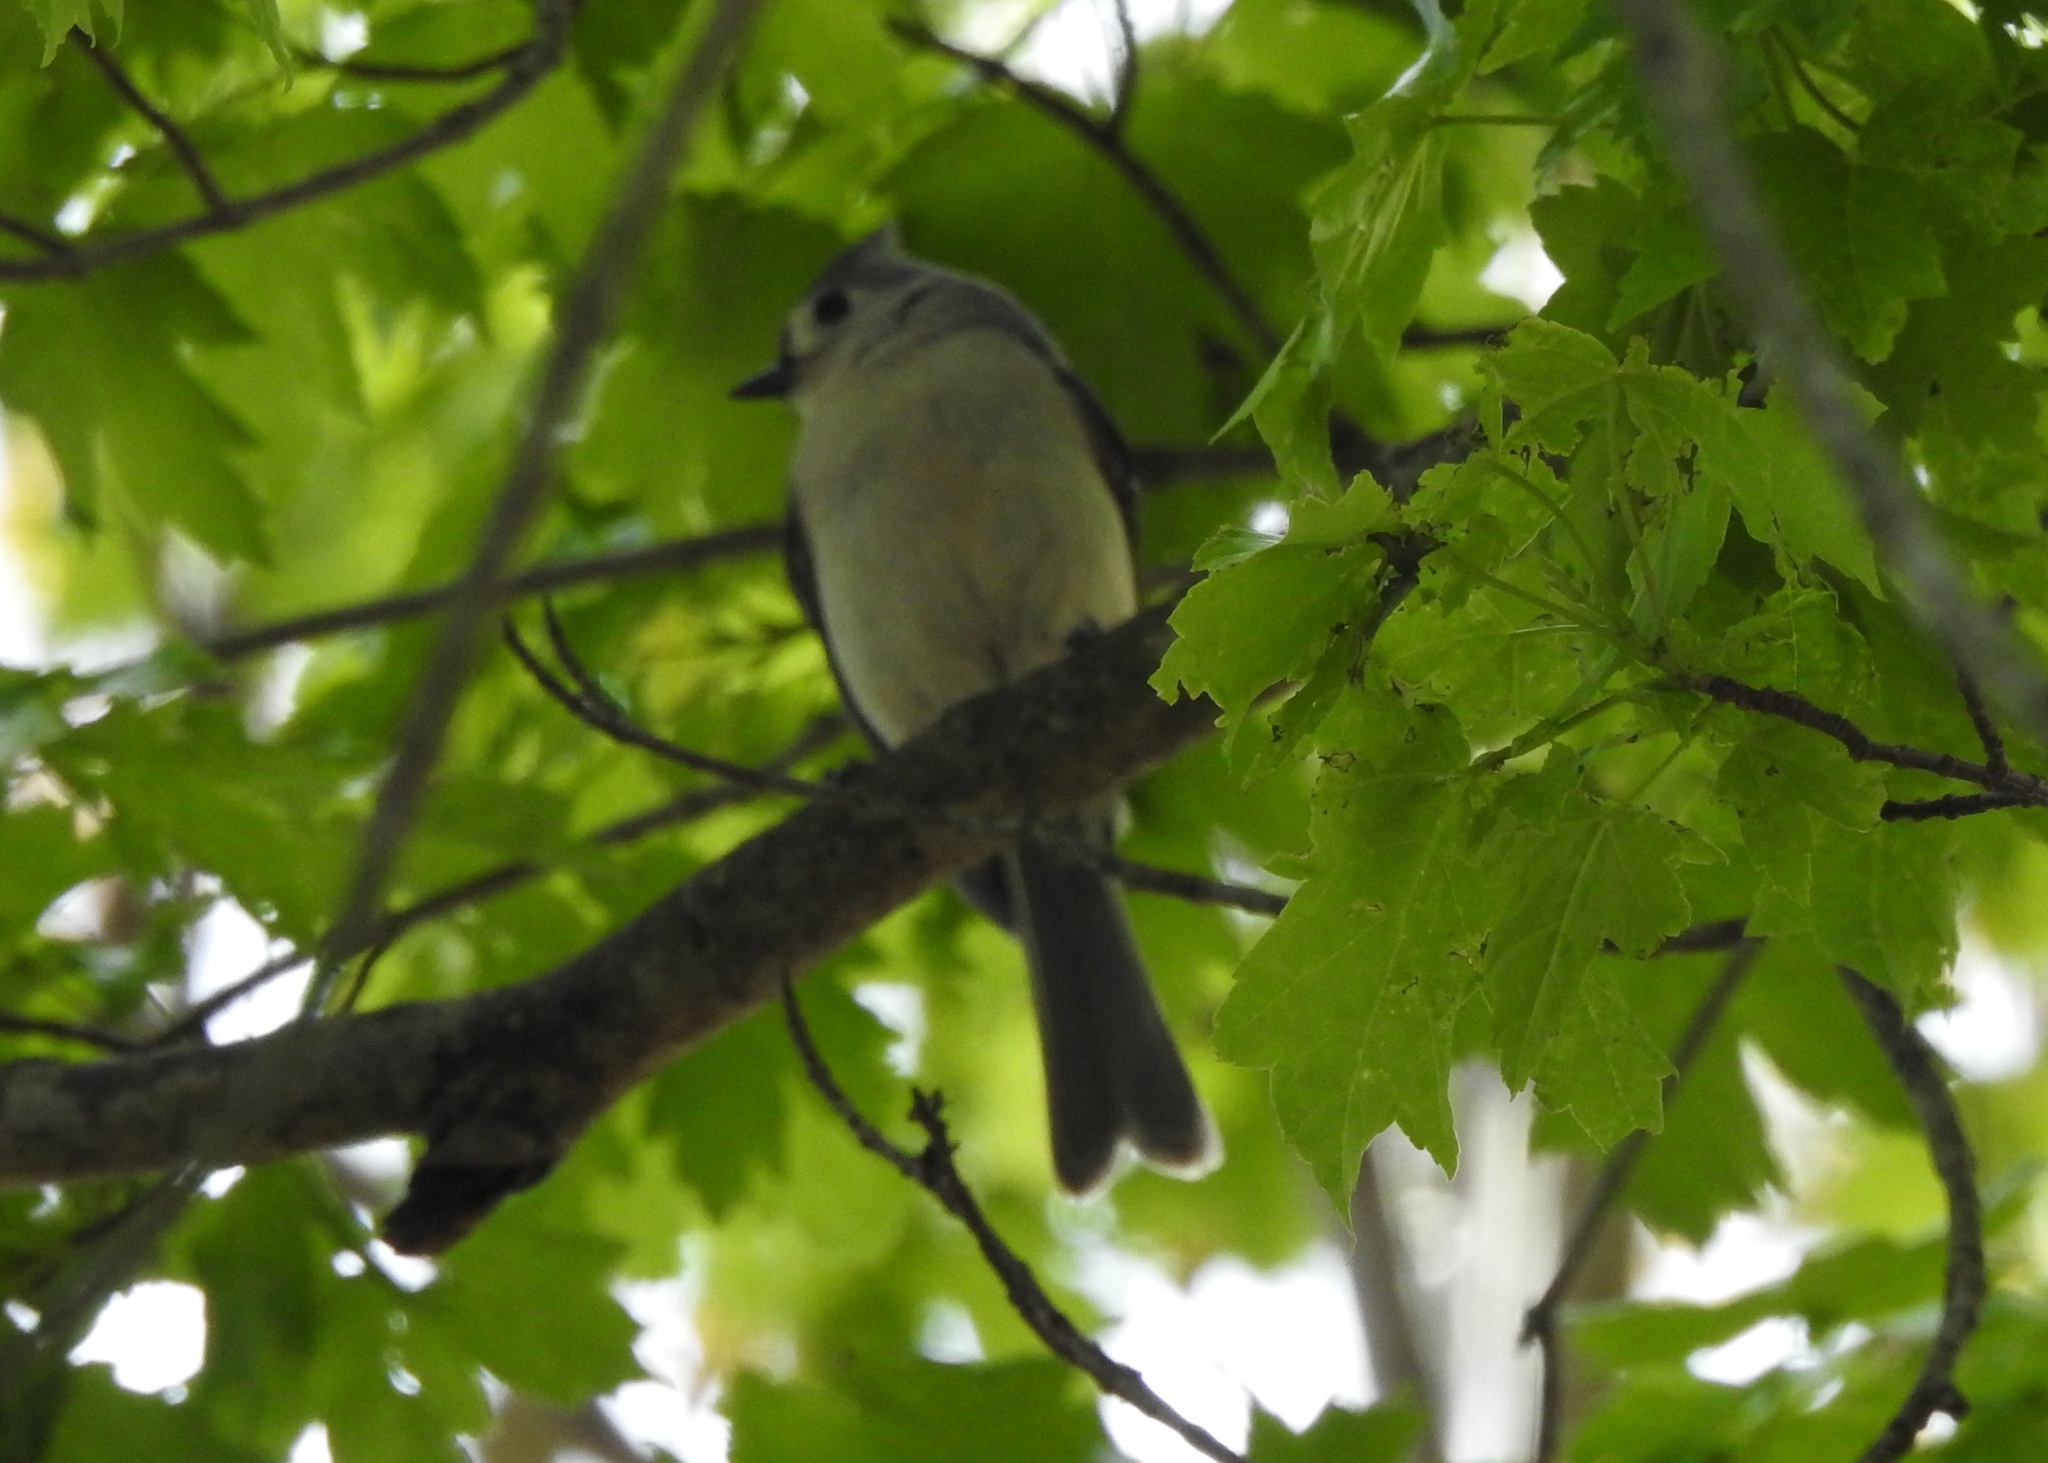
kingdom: Animalia
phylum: Chordata
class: Aves
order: Passeriformes
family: Paridae
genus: Baeolophus
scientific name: Baeolophus bicolor
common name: Tufted titmouse
